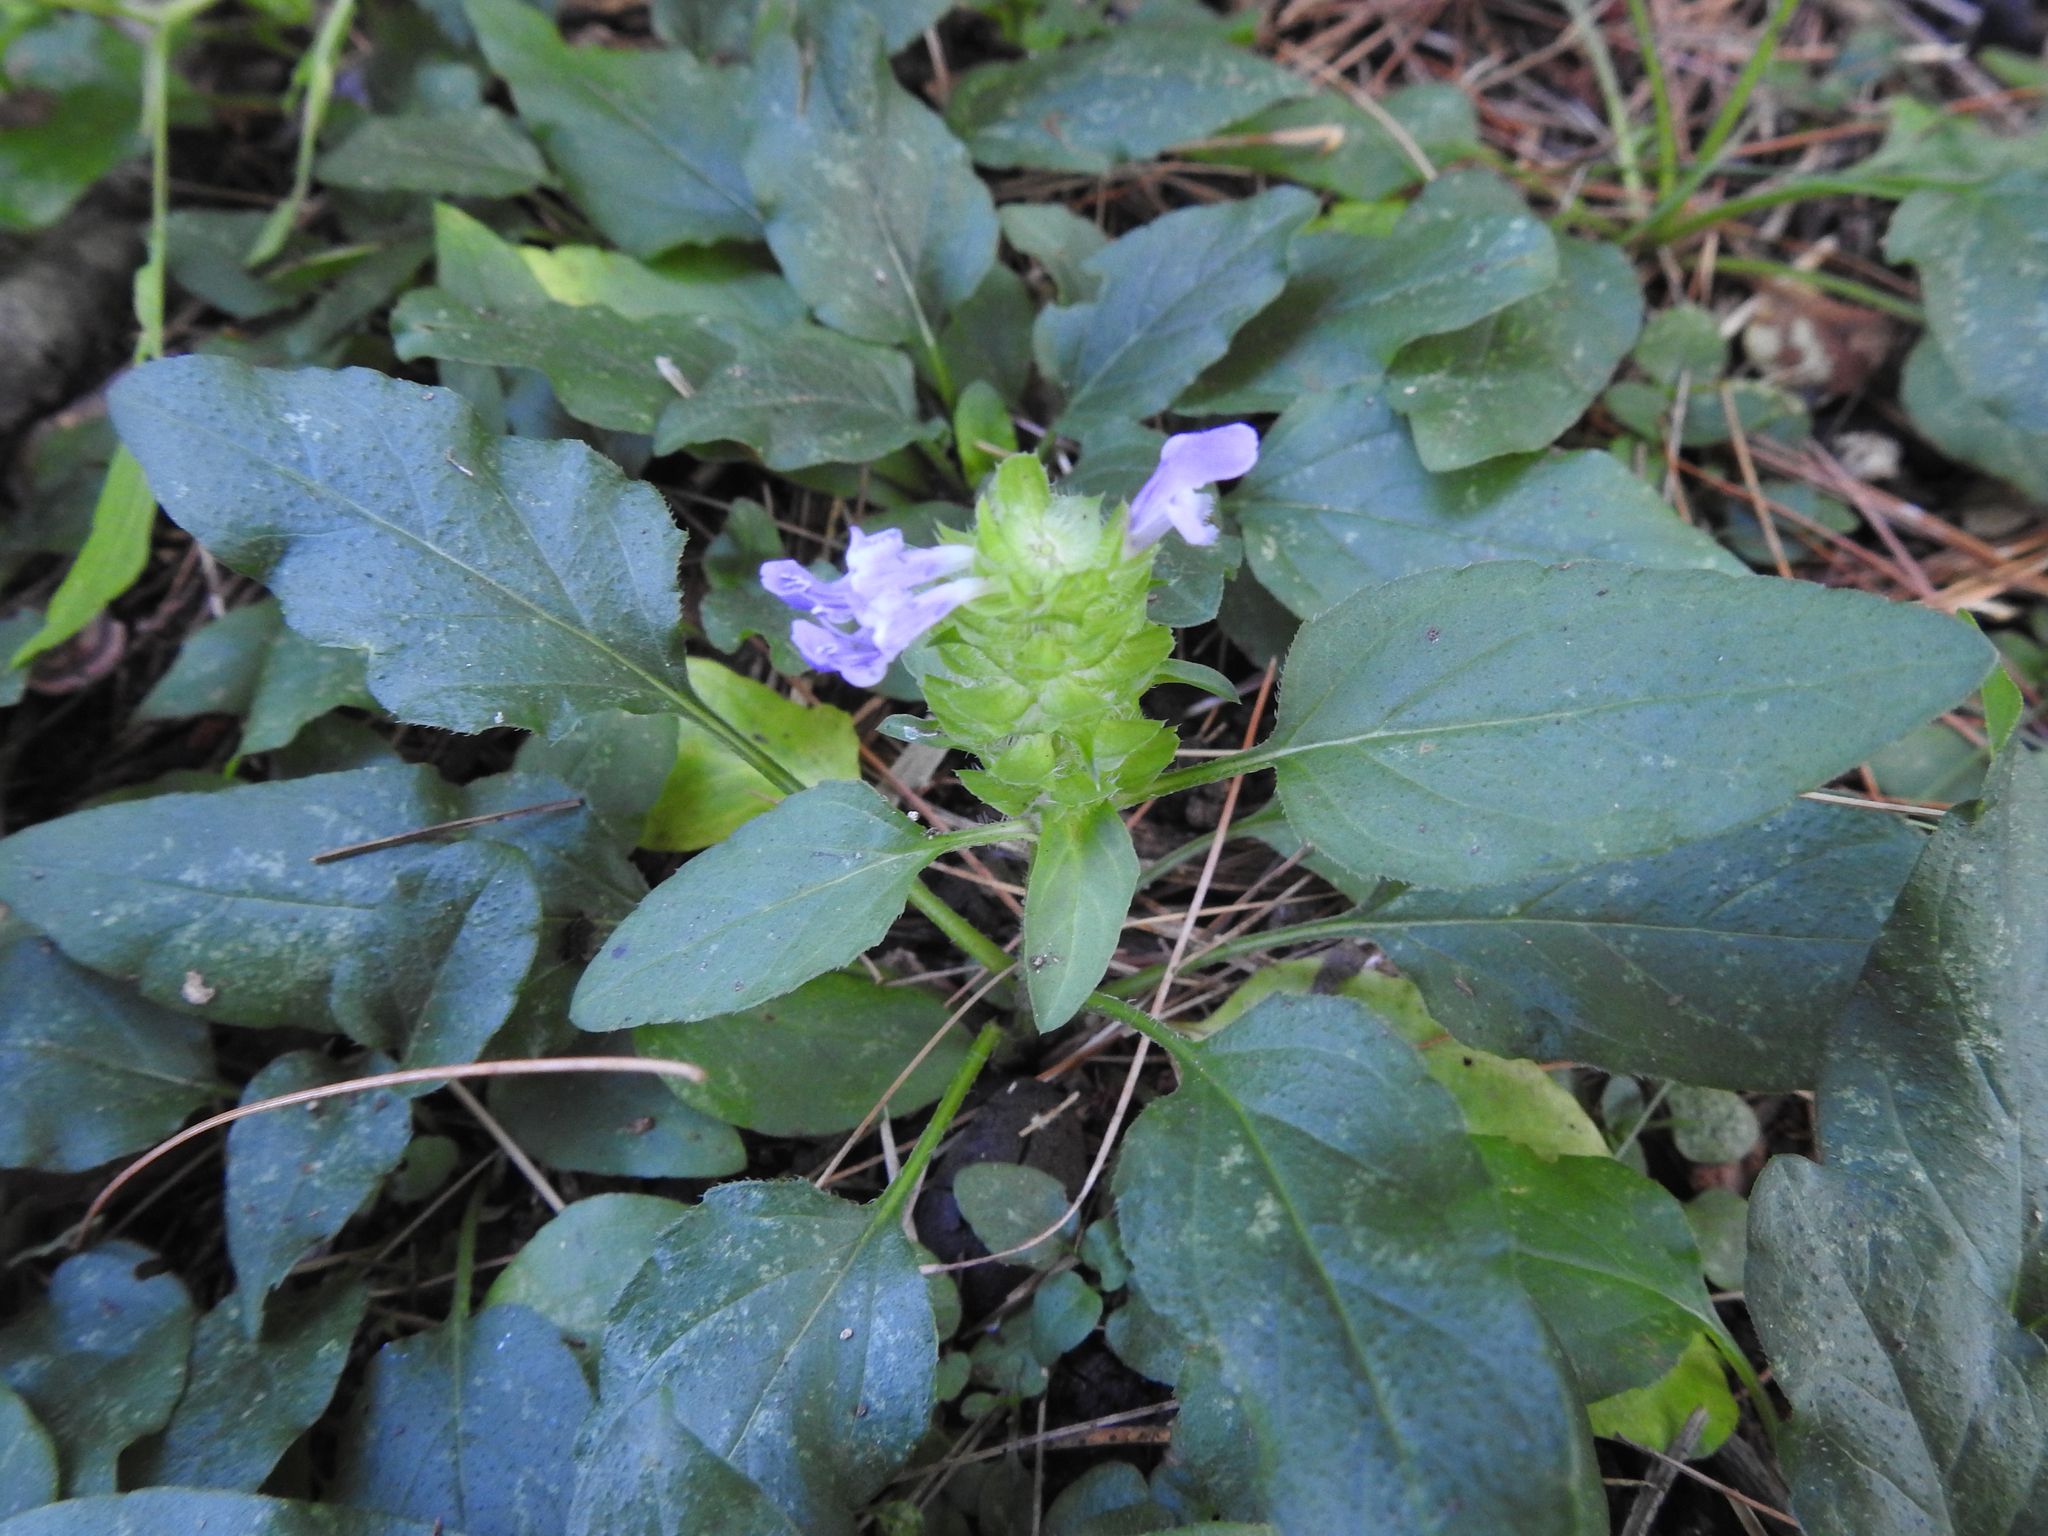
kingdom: Plantae
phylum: Tracheophyta
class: Magnoliopsida
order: Lamiales
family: Lamiaceae
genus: Prunella
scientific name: Prunella vulgaris
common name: Heal-all
